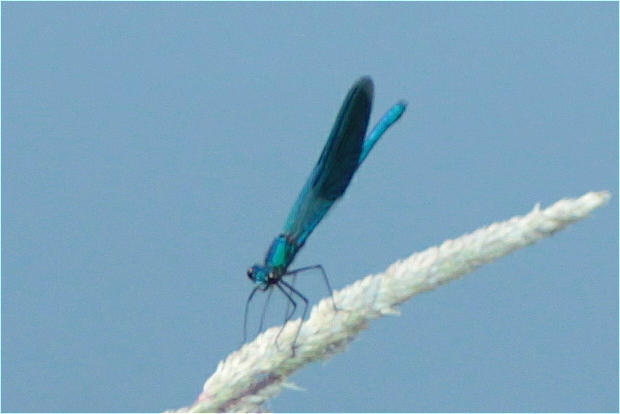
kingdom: Animalia
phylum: Arthropoda
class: Insecta
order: Odonata
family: Calopterygidae
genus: Calopteryx
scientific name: Calopteryx splendens
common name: Banded demoiselle
